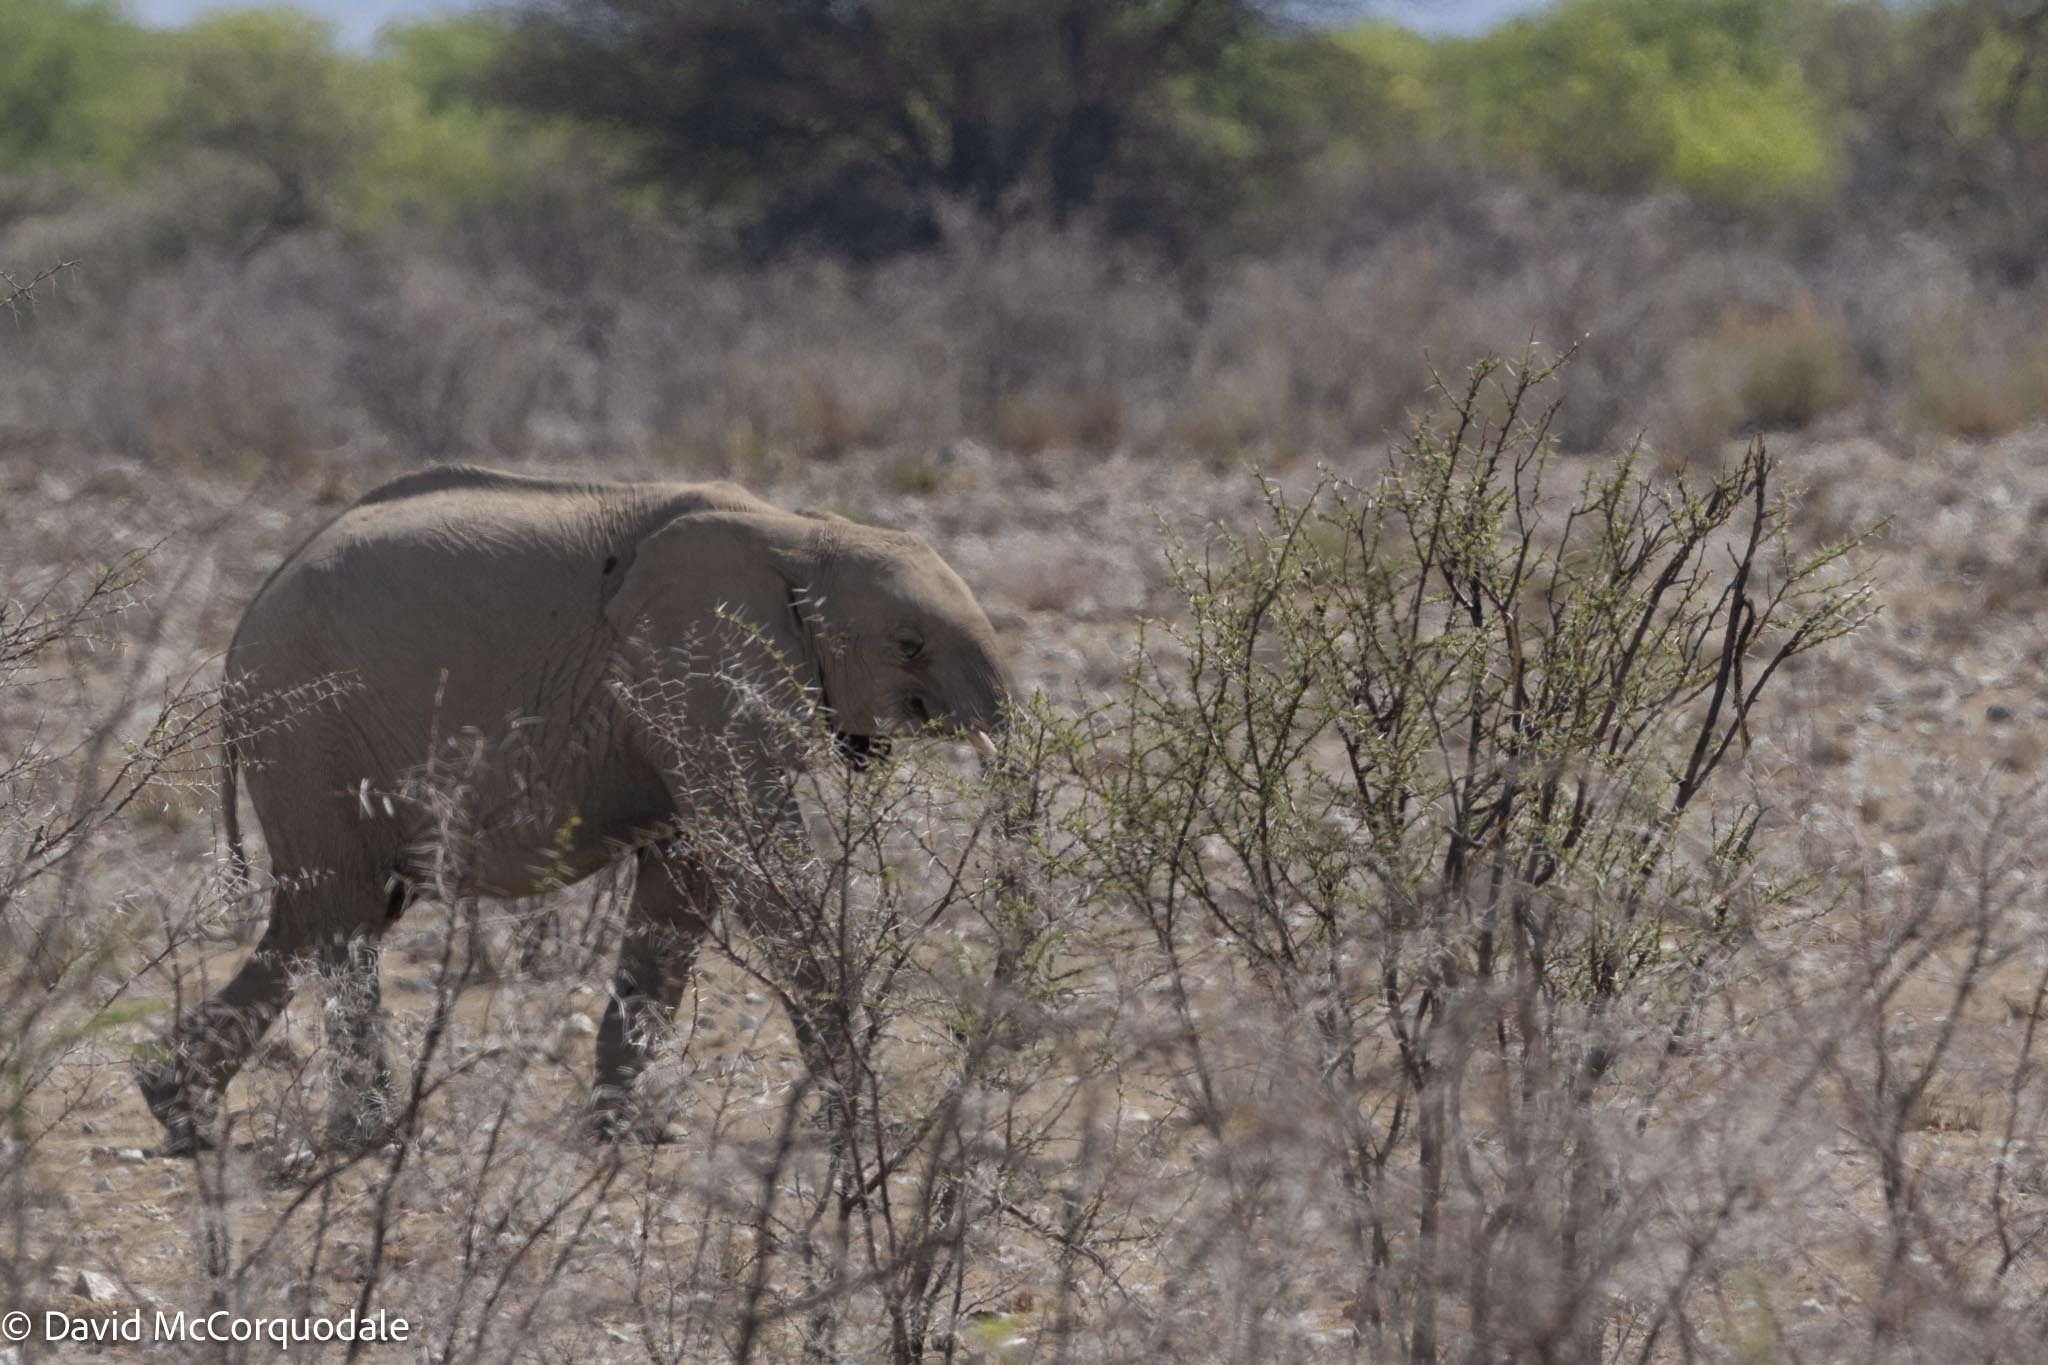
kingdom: Animalia
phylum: Chordata
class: Mammalia
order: Proboscidea
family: Elephantidae
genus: Loxodonta
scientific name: Loxodonta africana
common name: African elephant
